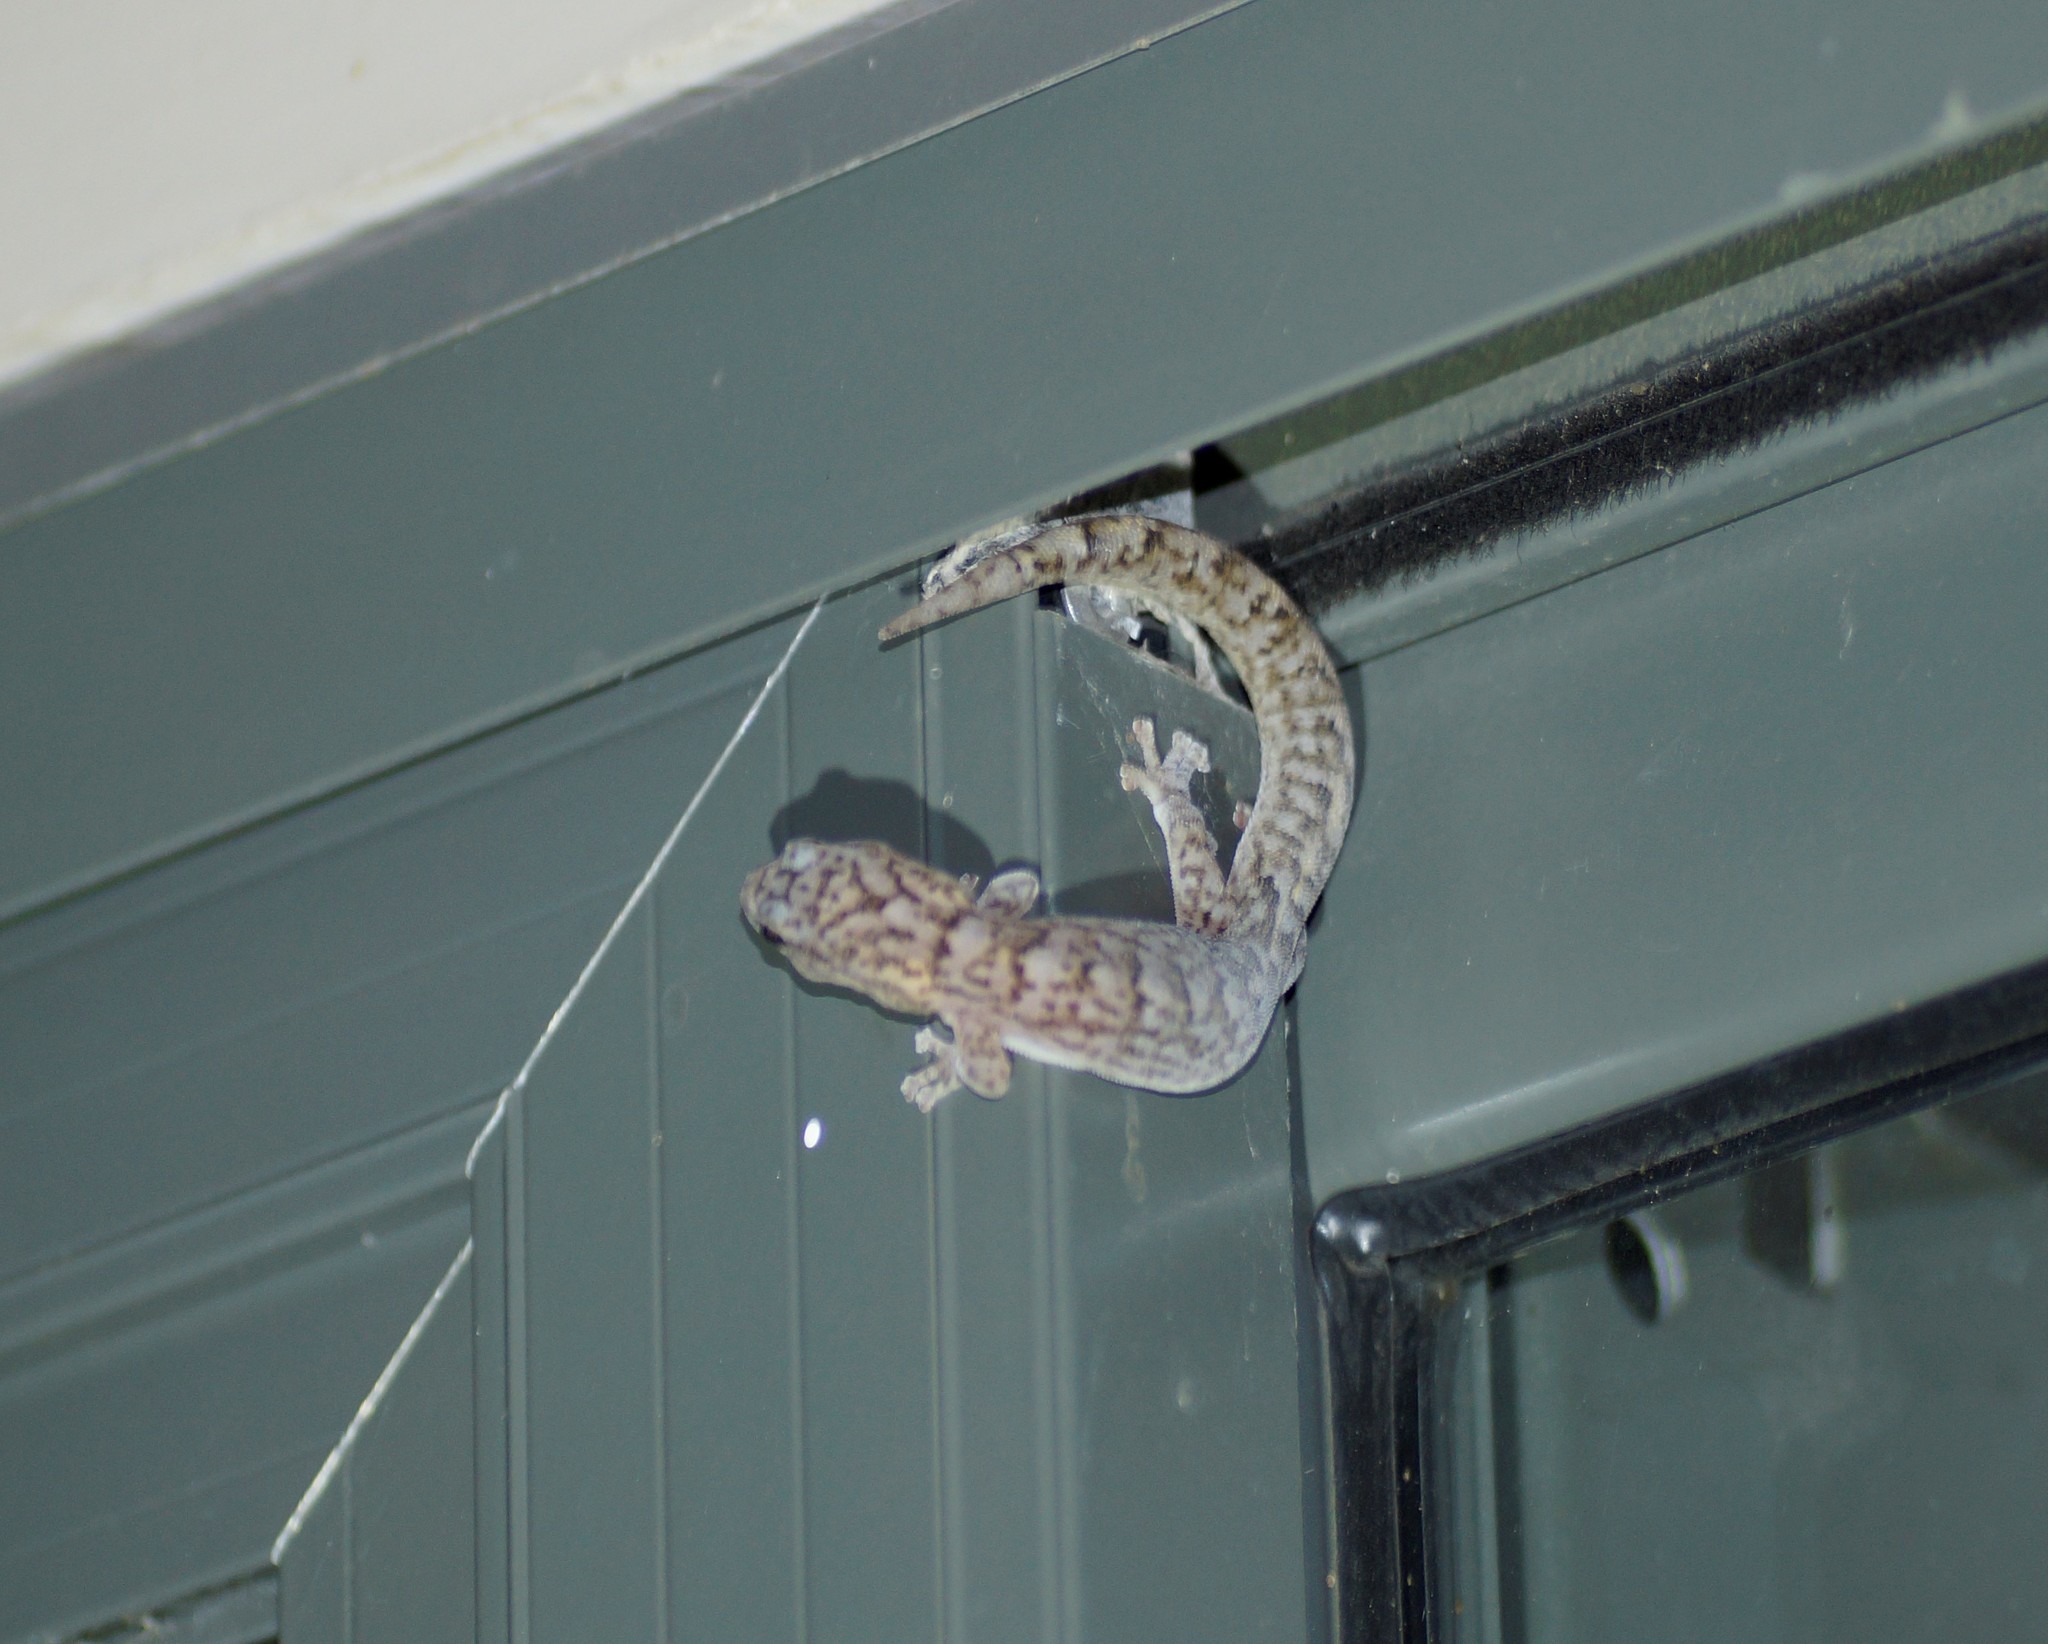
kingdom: Animalia
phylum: Chordata
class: Squamata
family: Gekkonidae
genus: Christinus
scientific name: Christinus marmoratus
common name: Marbled gecko
